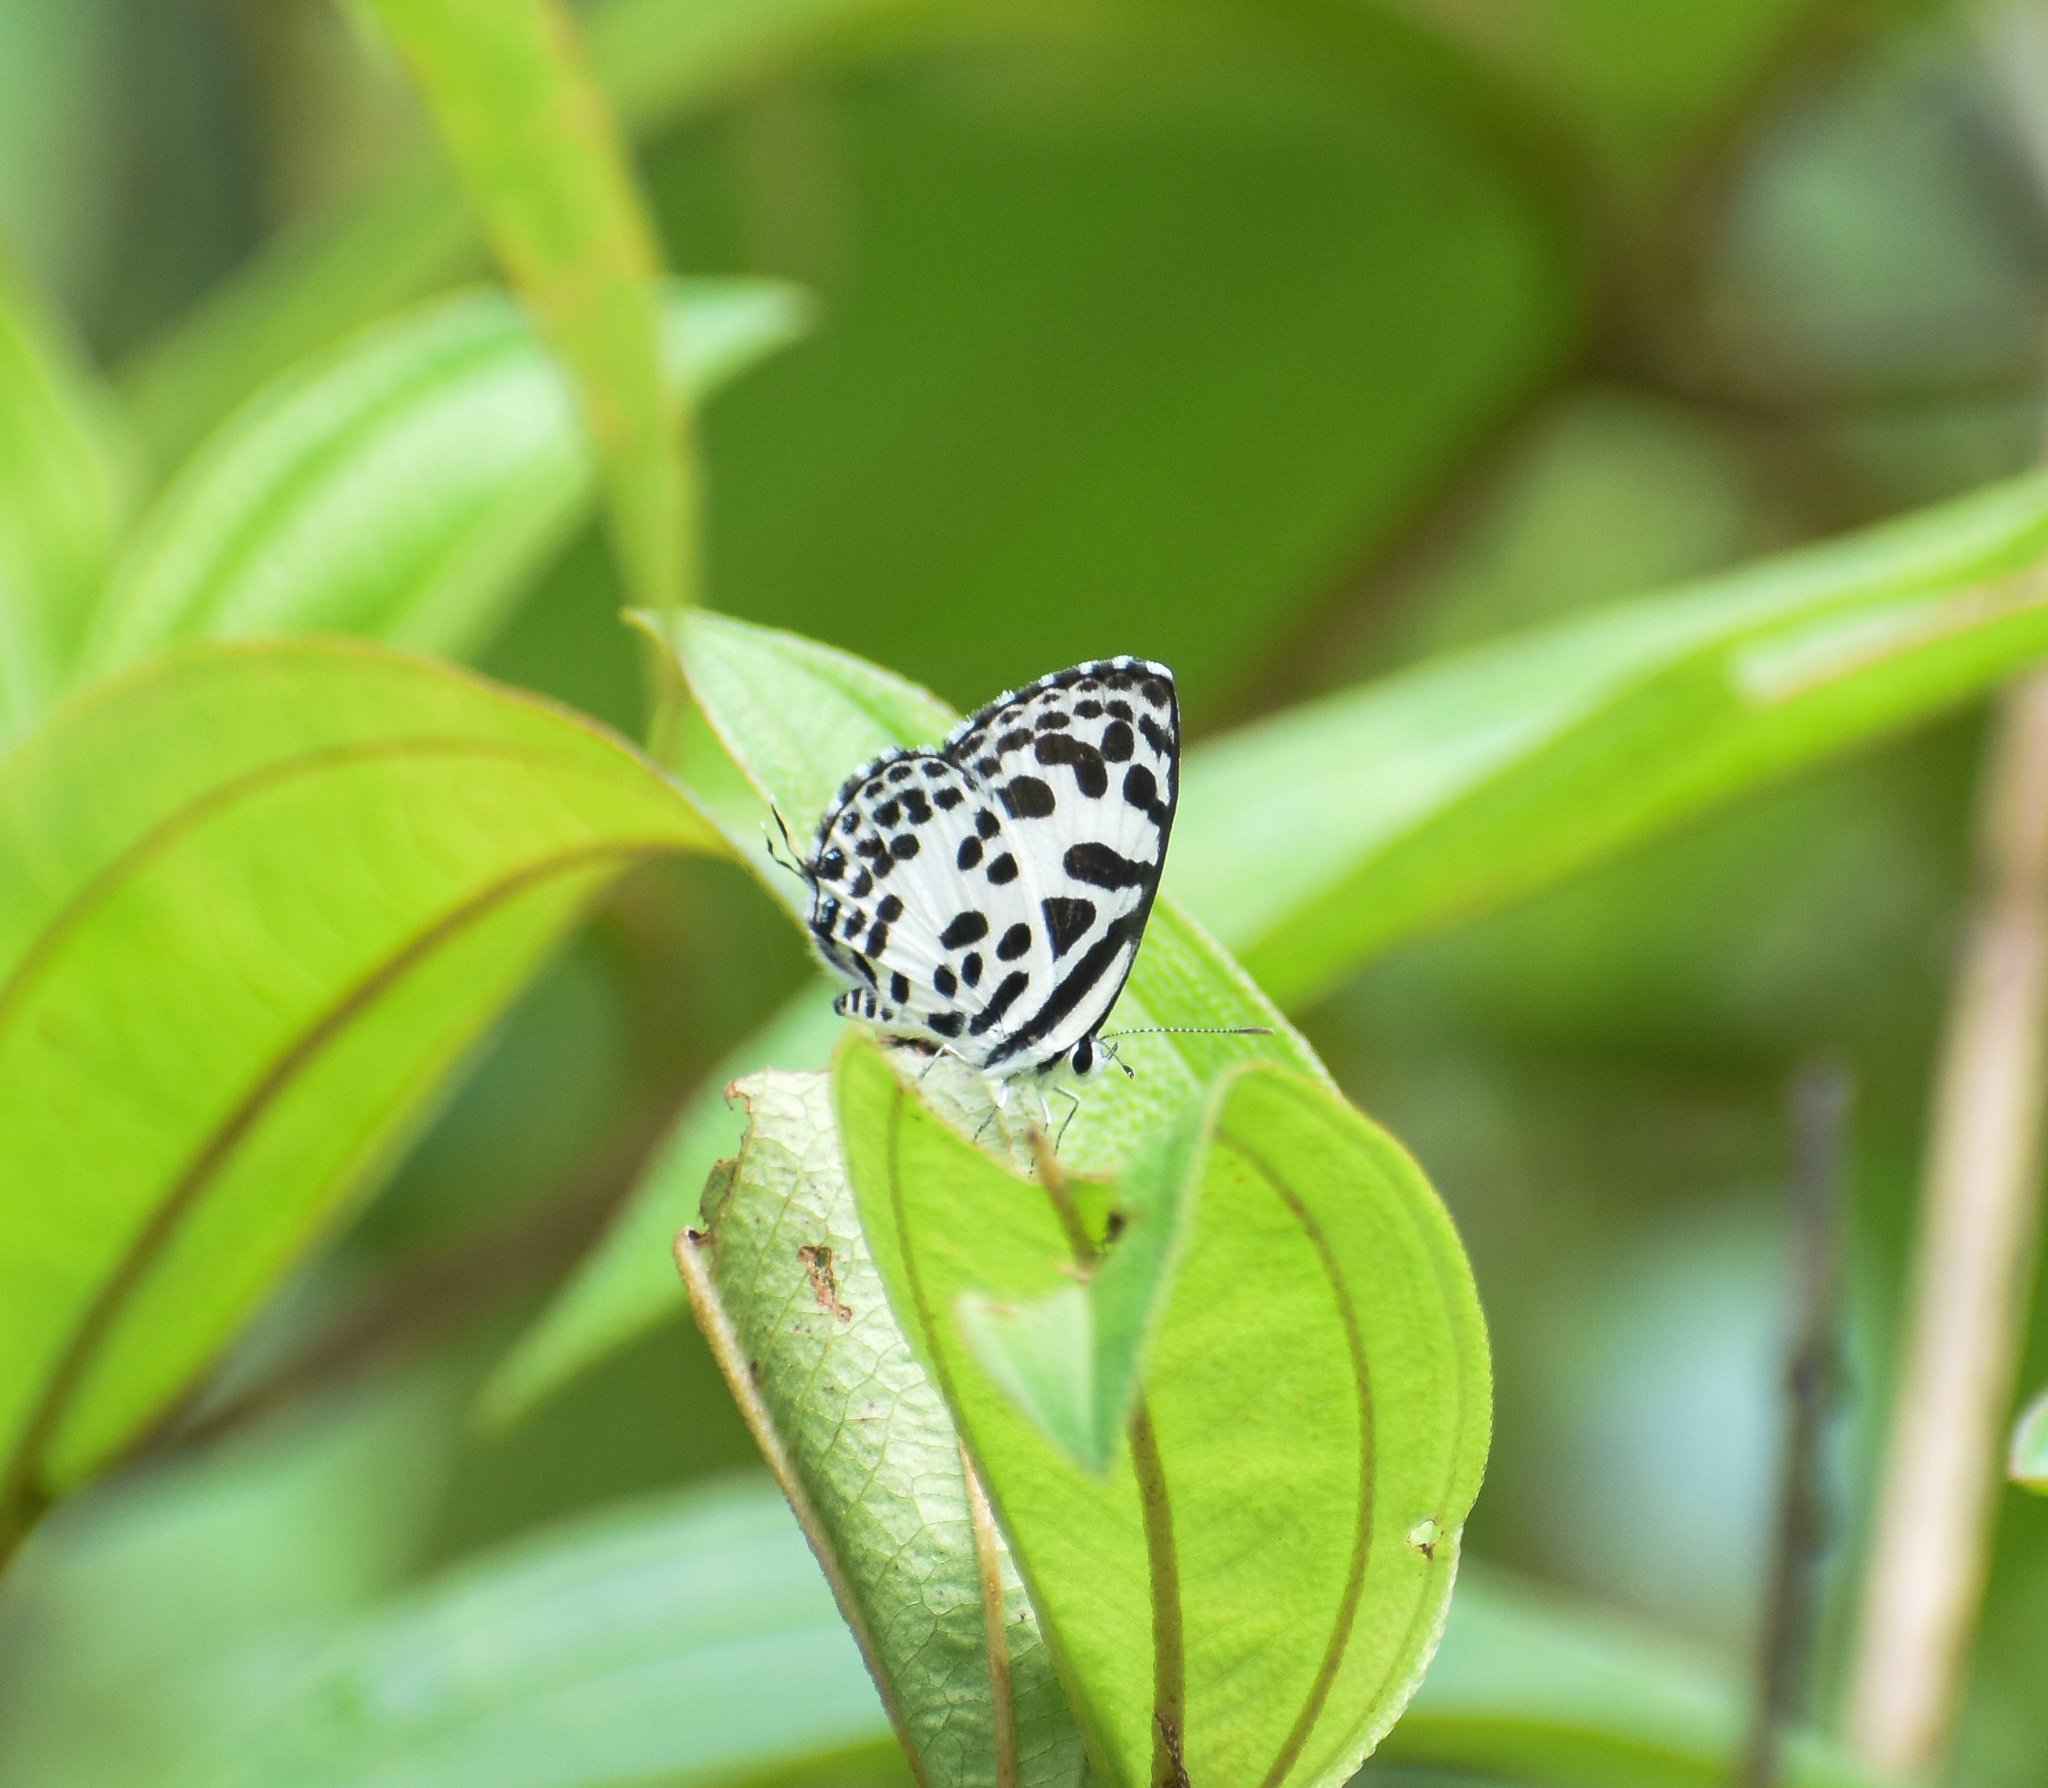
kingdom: Animalia
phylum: Arthropoda
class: Insecta
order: Lepidoptera
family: Lycaenidae
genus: Castalius
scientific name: Castalius rosimon
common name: Common pierrot
